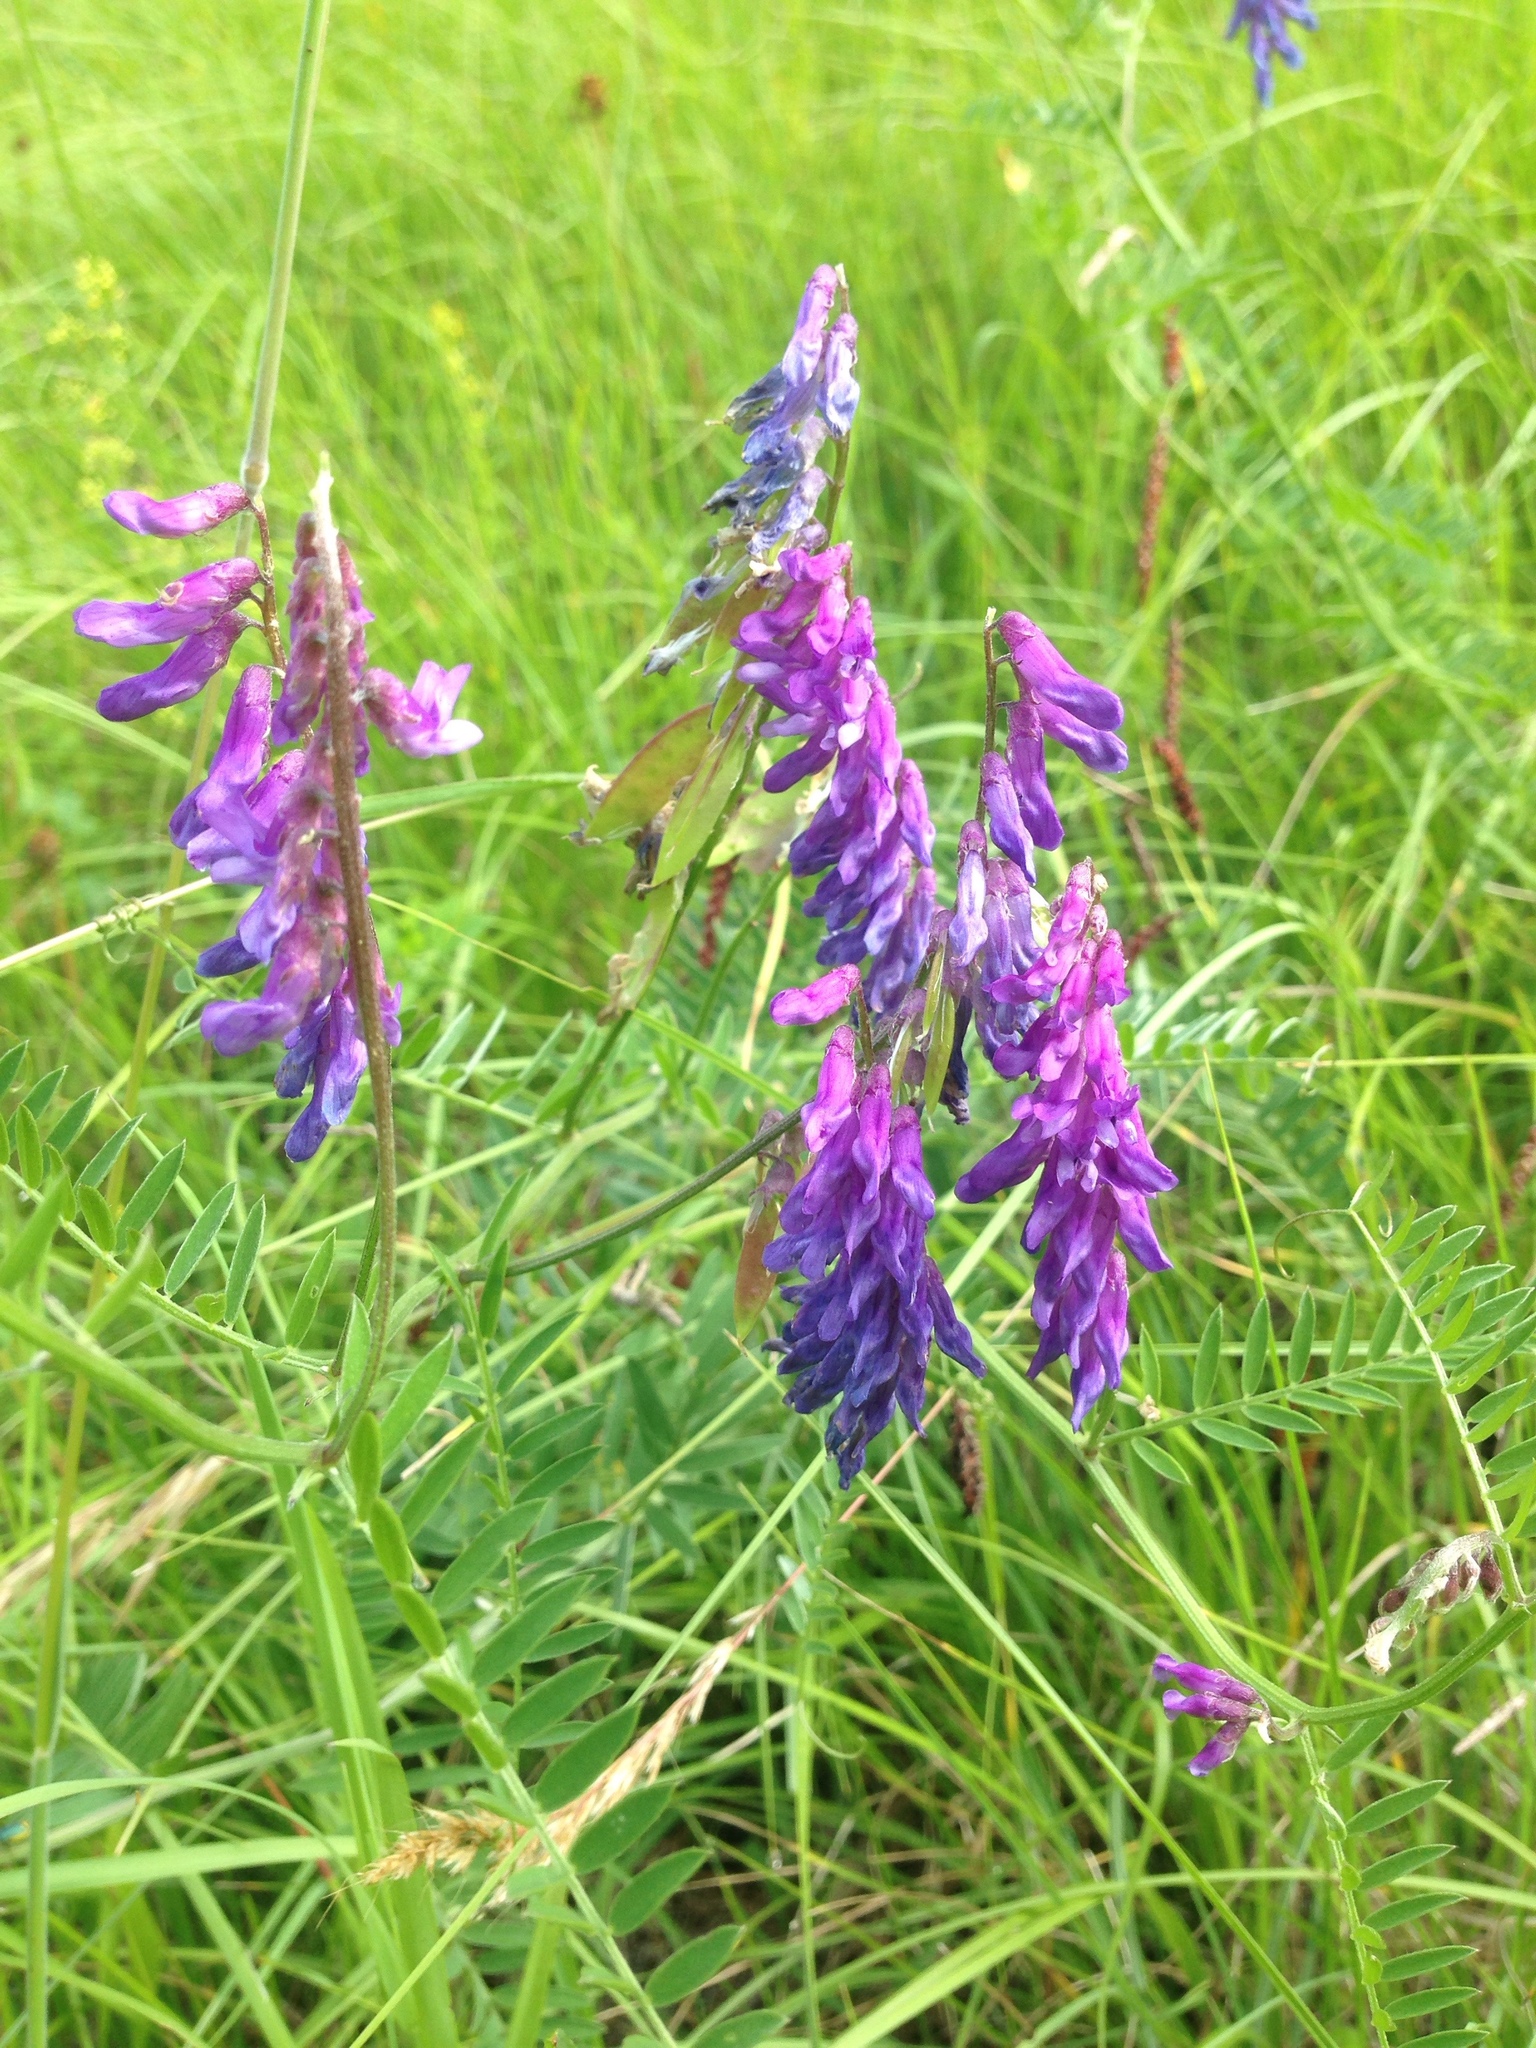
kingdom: Plantae
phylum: Tracheophyta
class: Magnoliopsida
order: Fabales
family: Fabaceae
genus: Vicia
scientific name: Vicia cracca
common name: Bird vetch
